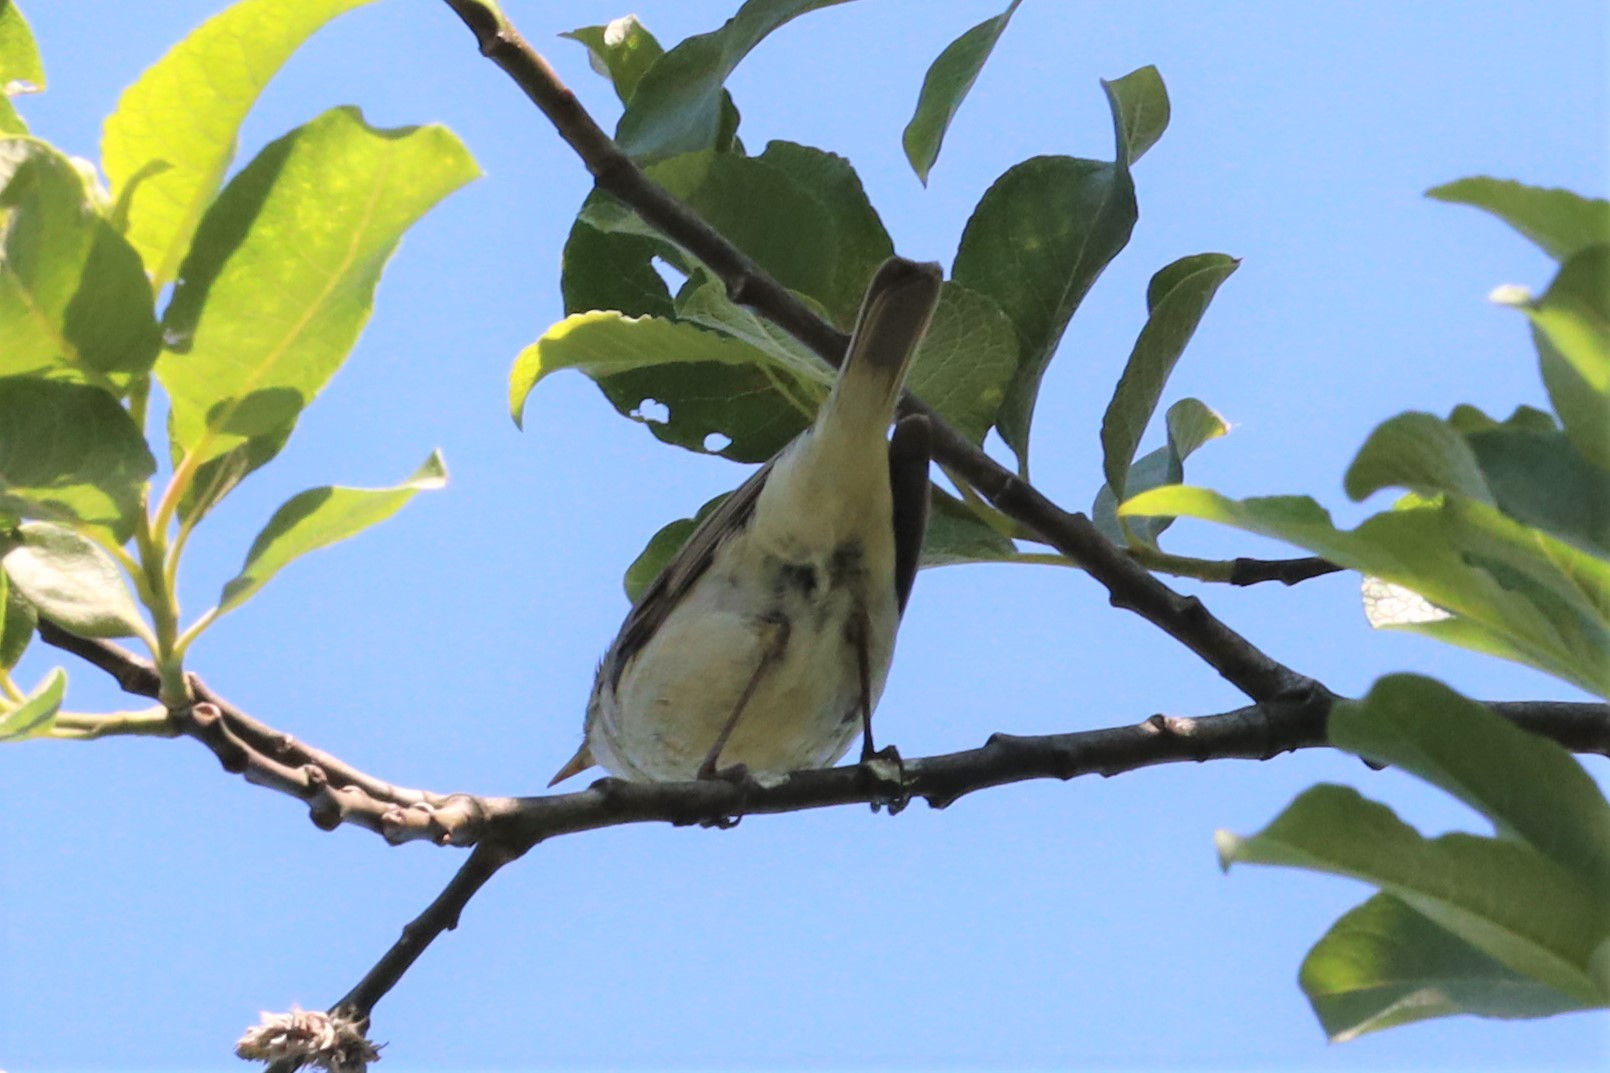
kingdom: Animalia
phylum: Chordata
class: Aves
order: Passeriformes
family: Phylloscopidae
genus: Phylloscopus
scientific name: Phylloscopus collybita
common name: Common chiffchaff
